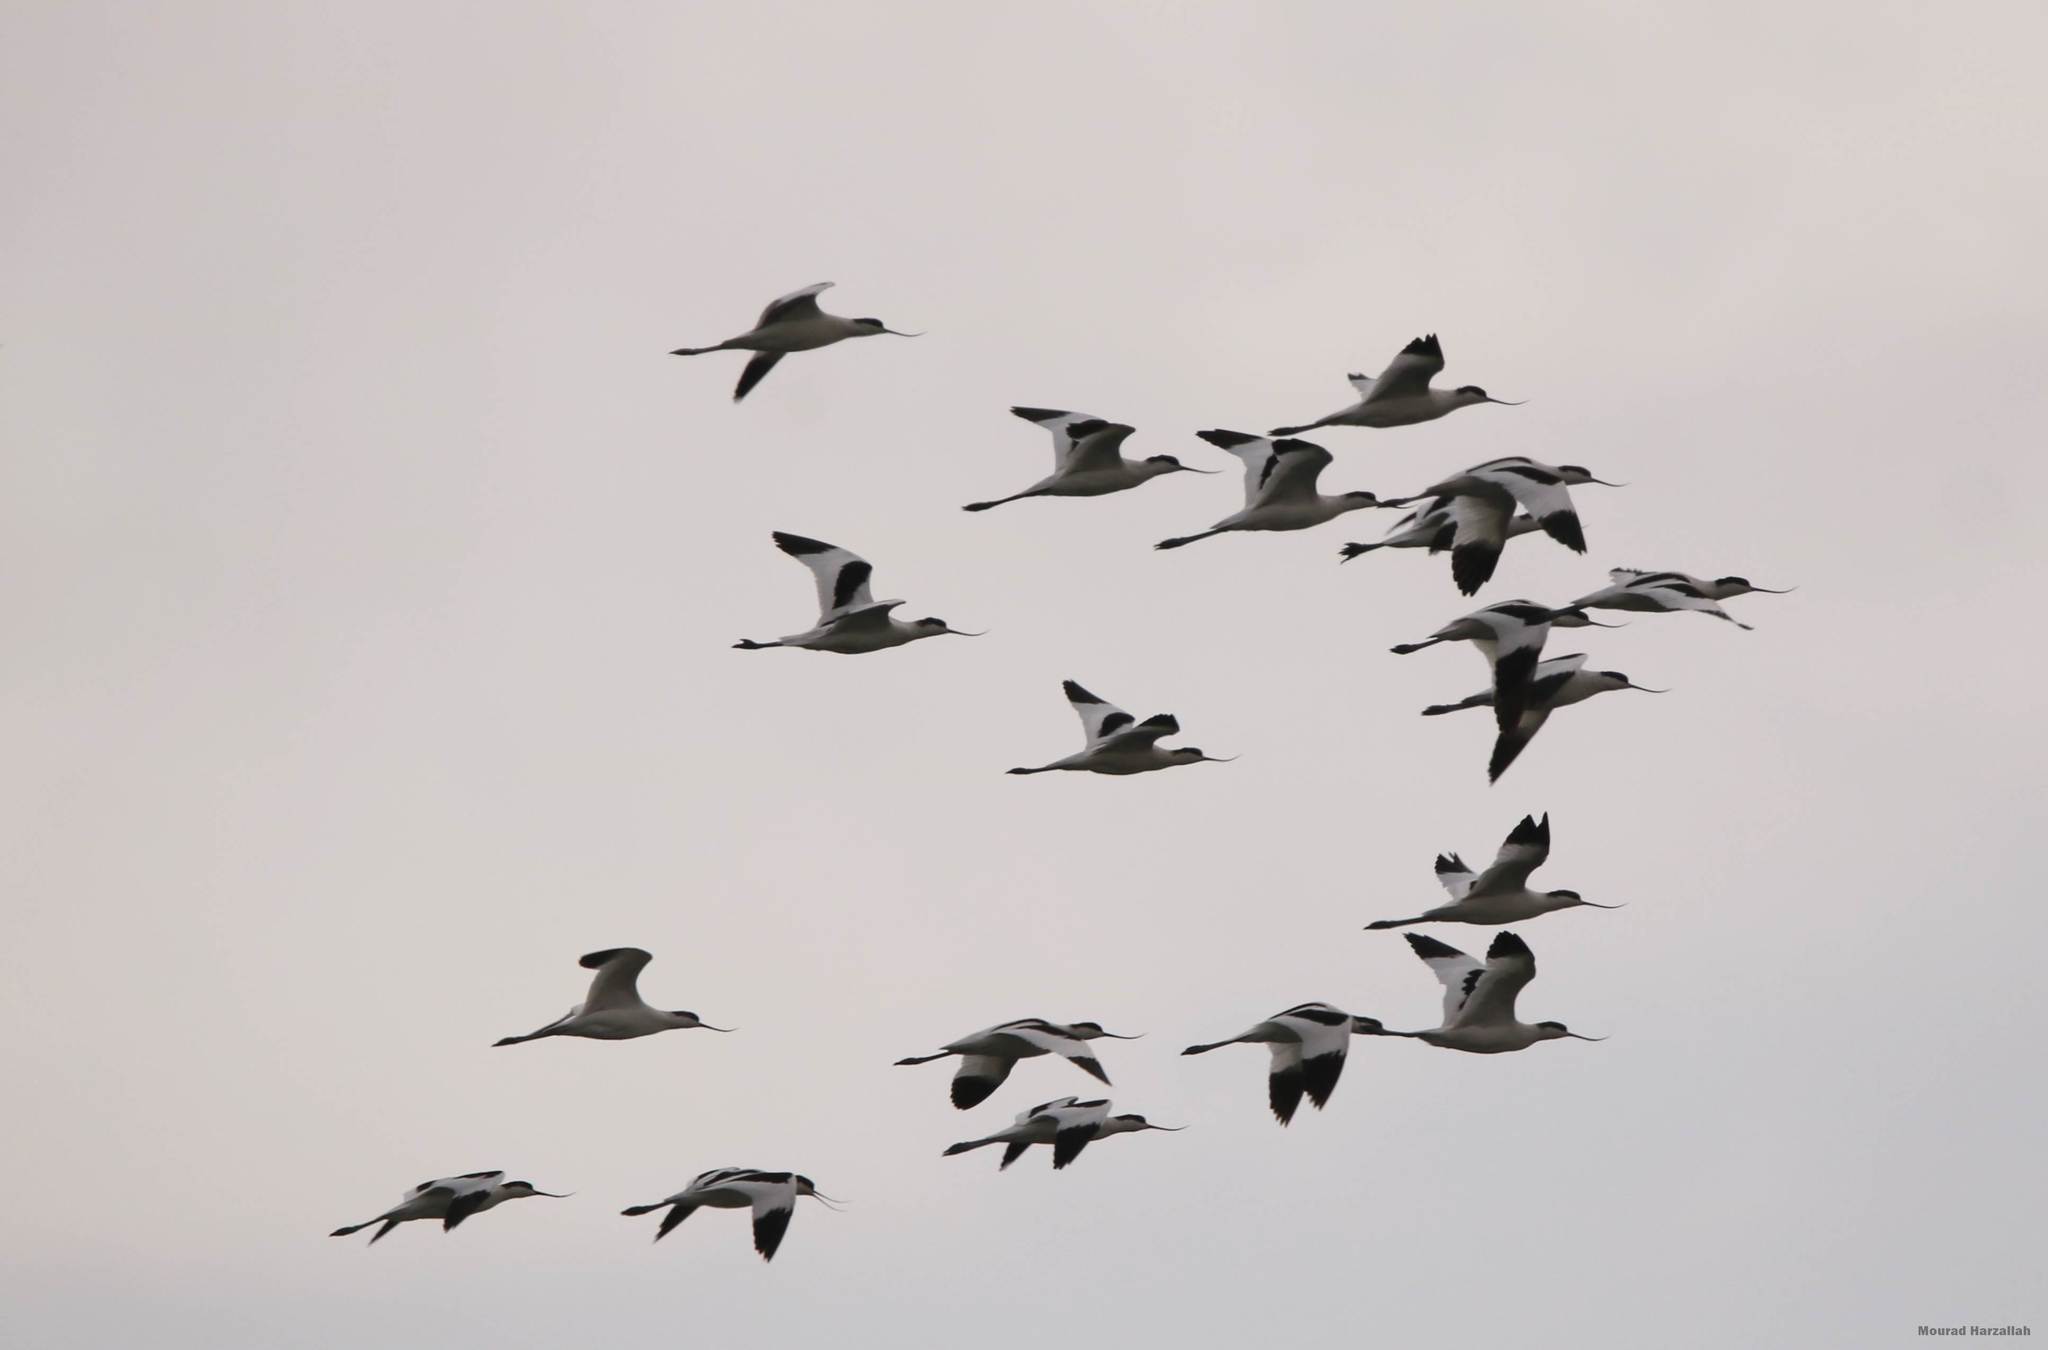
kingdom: Animalia
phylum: Chordata
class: Aves
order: Charadriiformes
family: Recurvirostridae
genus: Recurvirostra
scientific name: Recurvirostra avosetta
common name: Pied avocet
